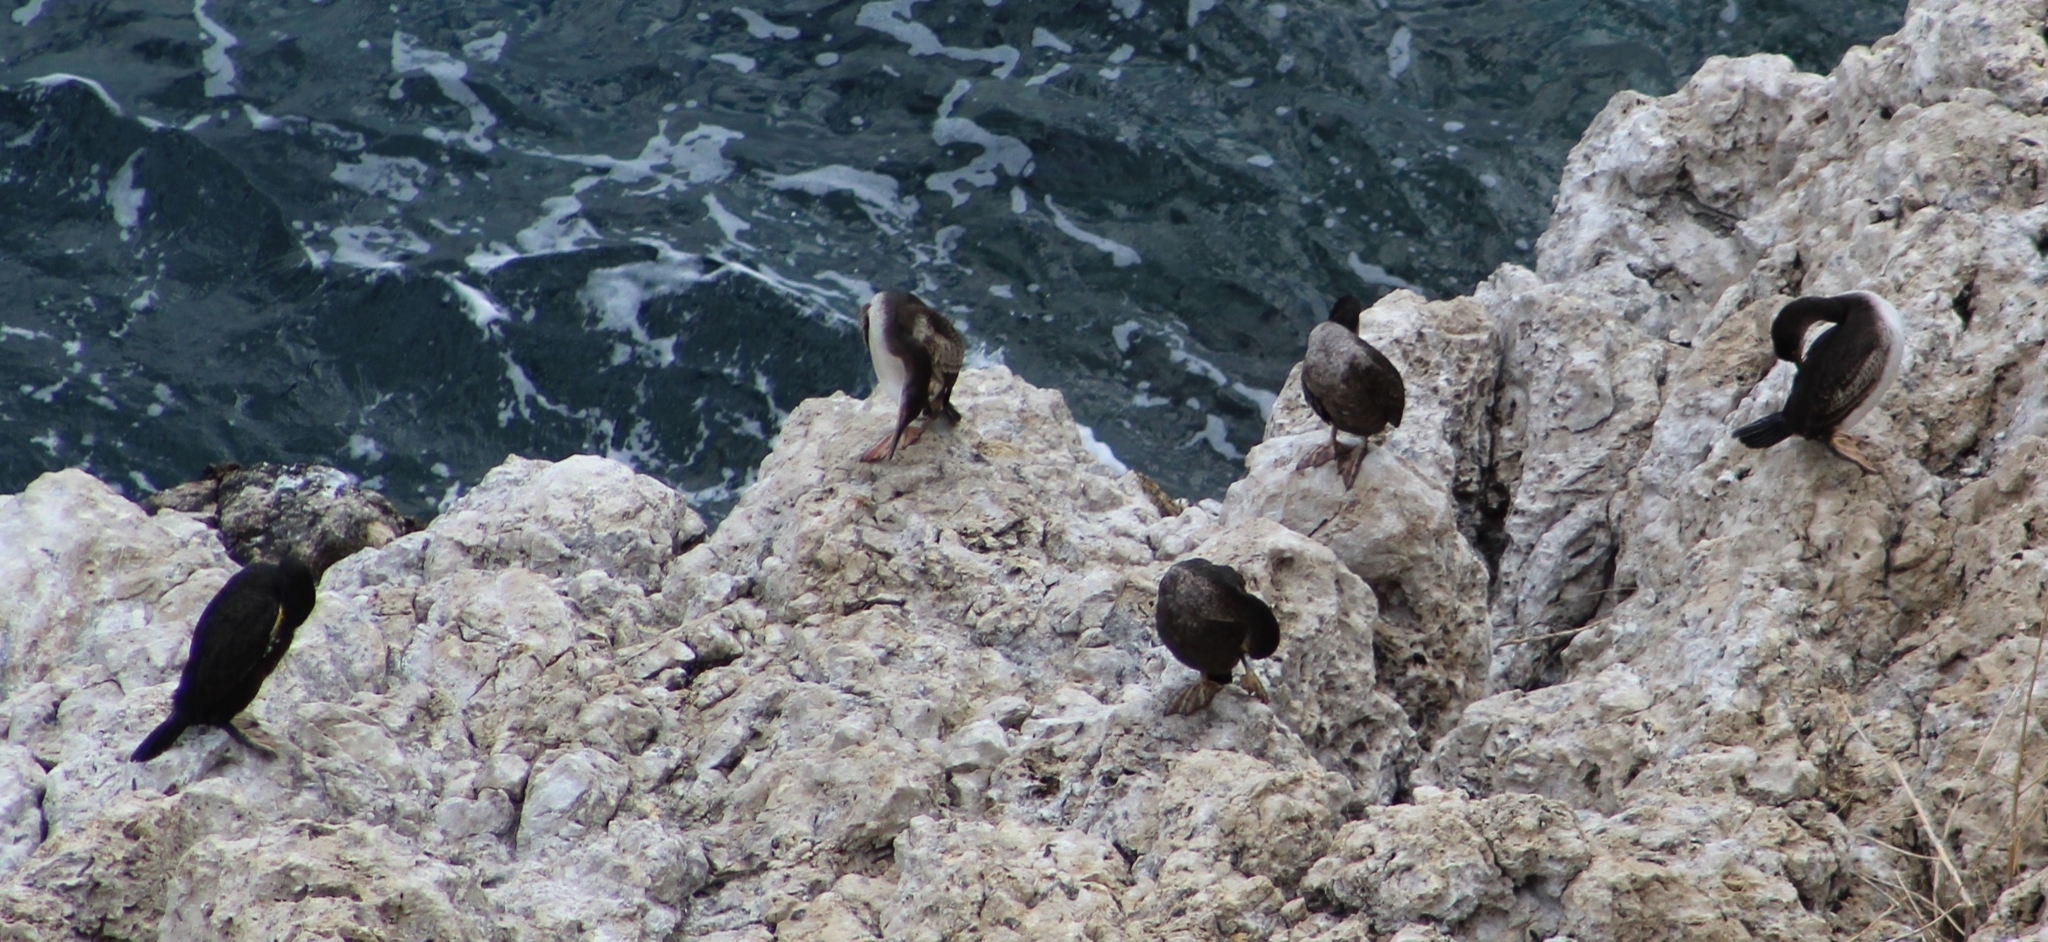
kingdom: Animalia
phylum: Chordata
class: Aves
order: Suliformes
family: Phalacrocoracidae
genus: Phalacrocorax
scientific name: Phalacrocorax aristotelis
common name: European shag
